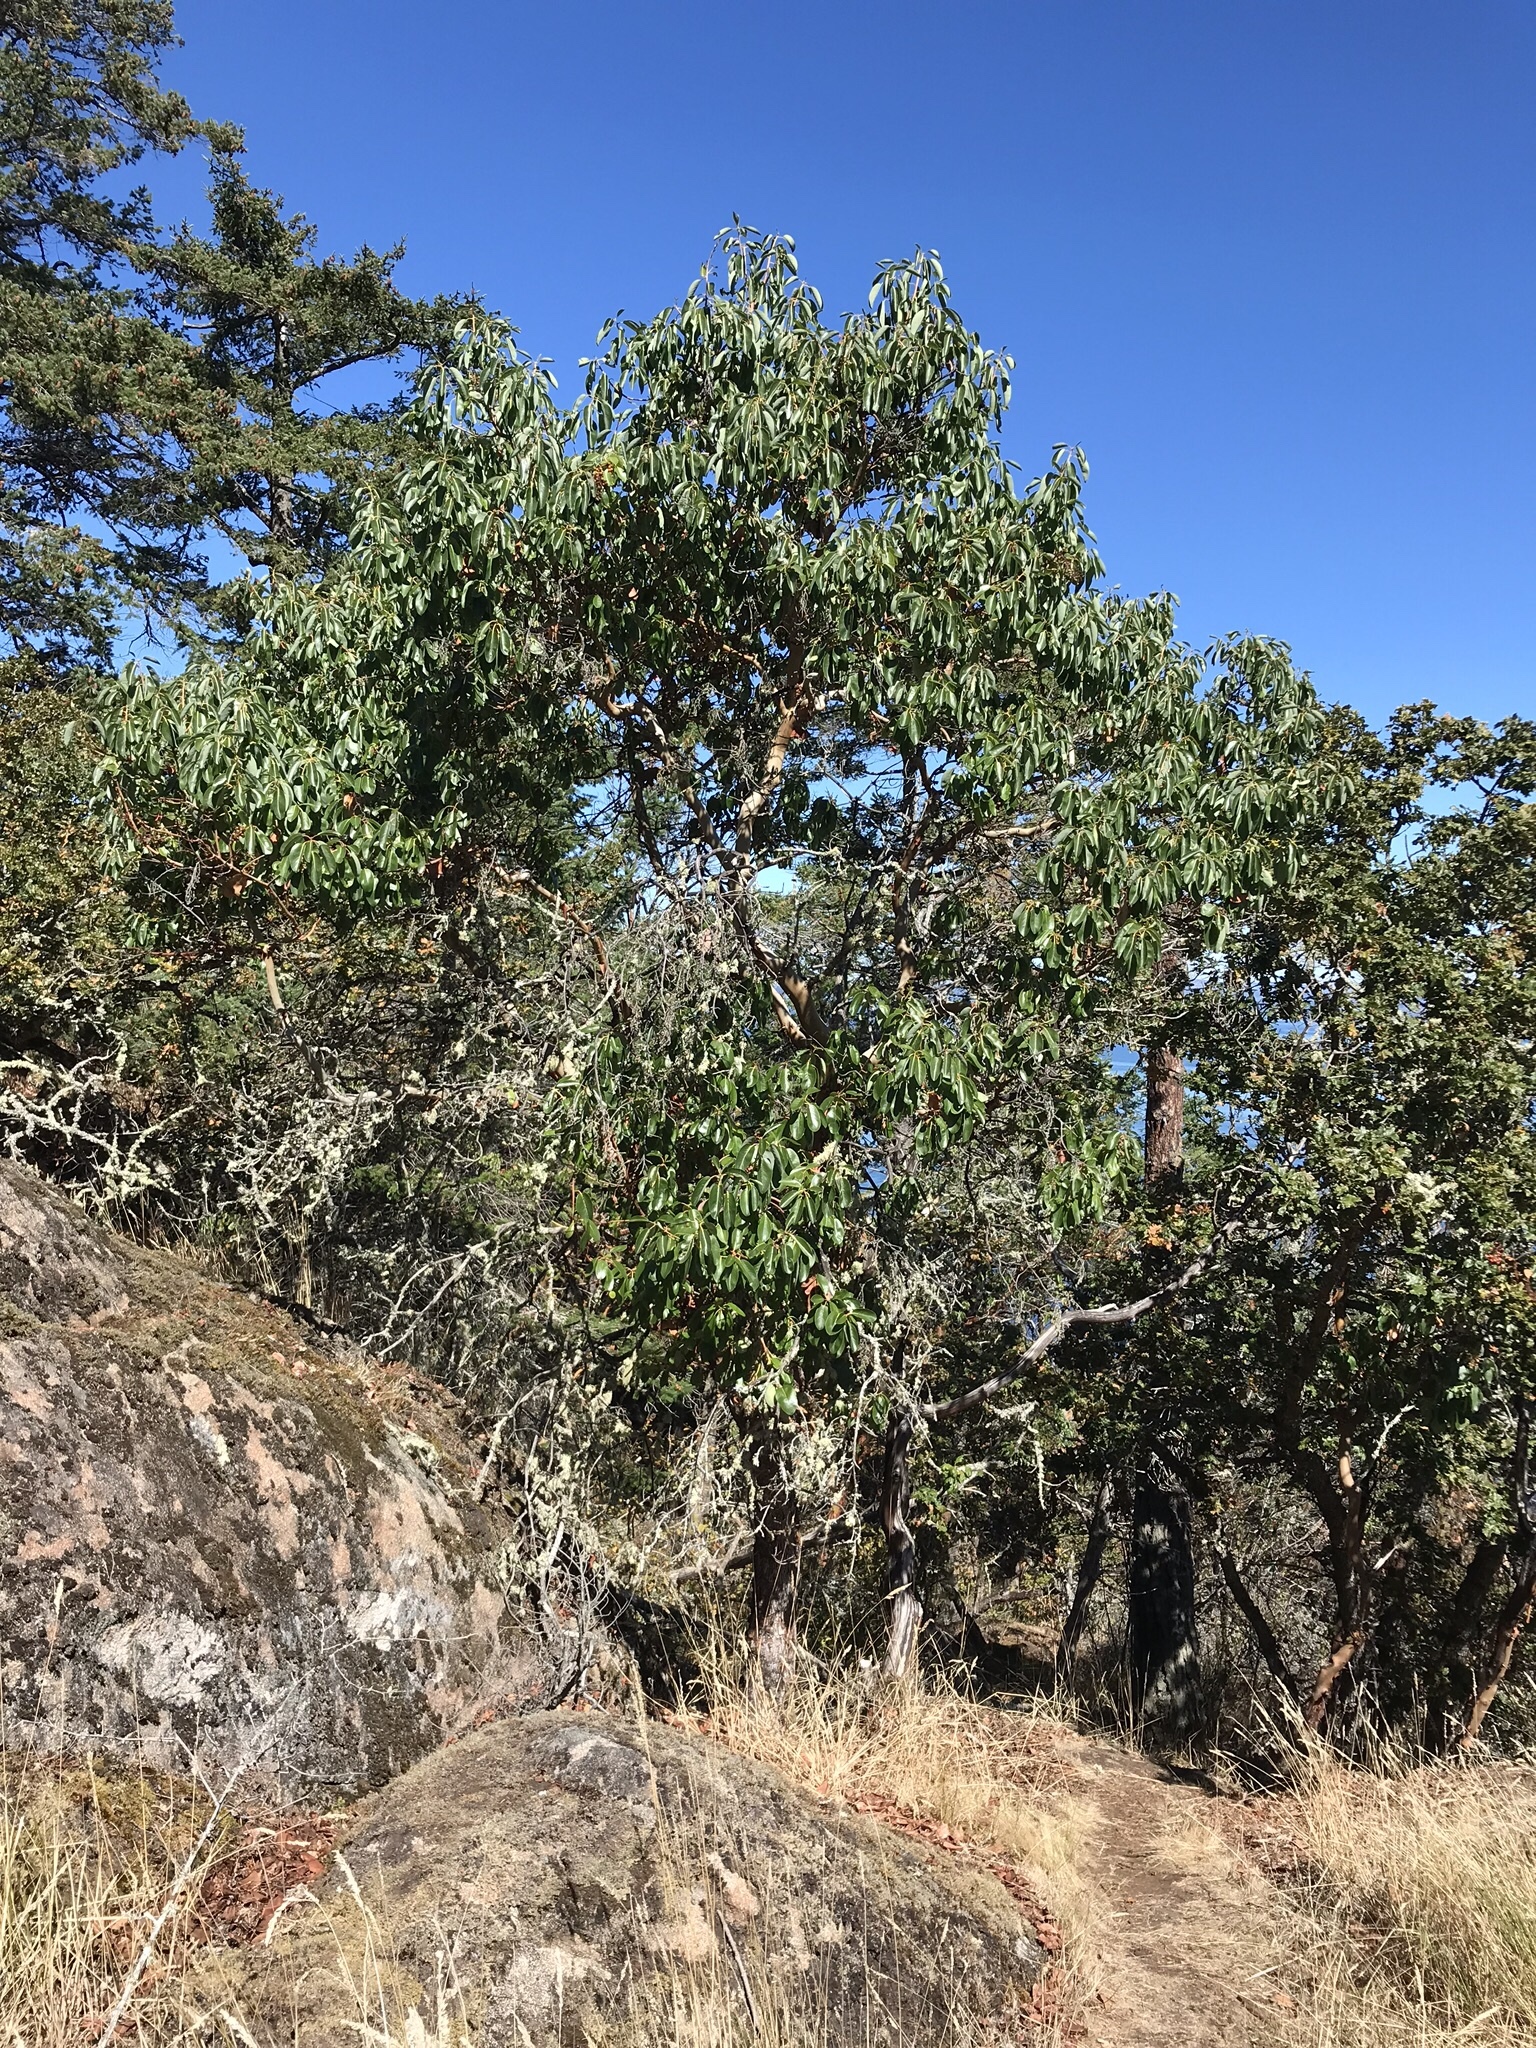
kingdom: Plantae
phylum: Tracheophyta
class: Magnoliopsida
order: Ericales
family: Ericaceae
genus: Arbutus
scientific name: Arbutus menziesii
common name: Pacific madrone
